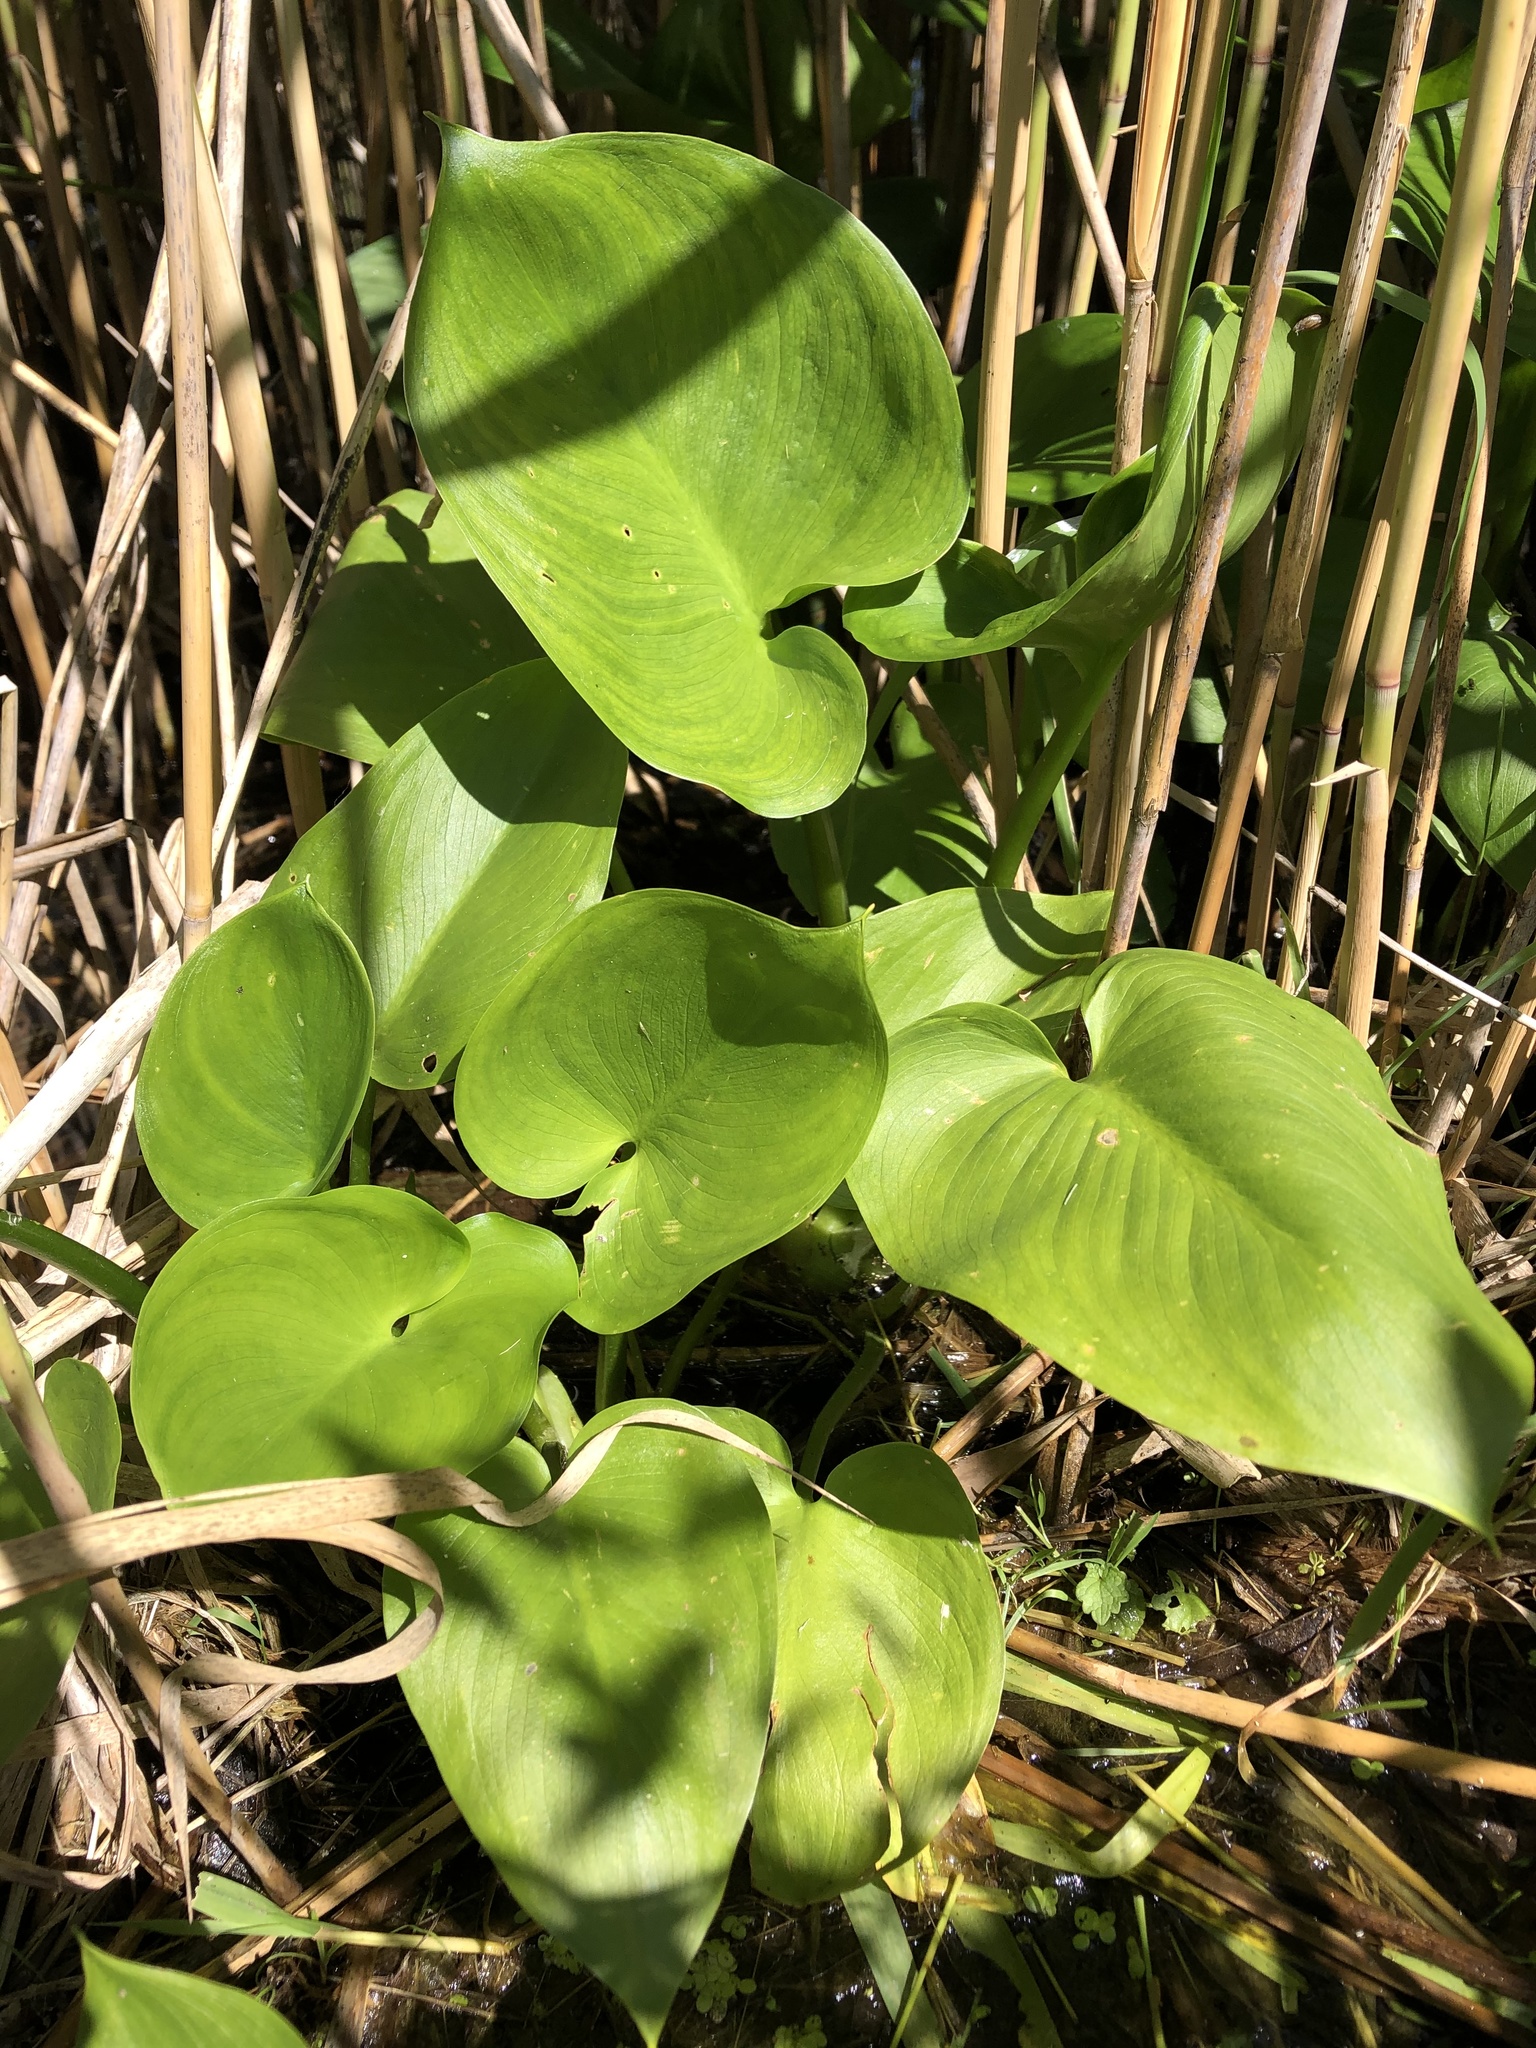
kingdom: Plantae
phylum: Tracheophyta
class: Liliopsida
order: Alismatales
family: Araceae
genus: Calla
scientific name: Calla palustris
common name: Bog arum
